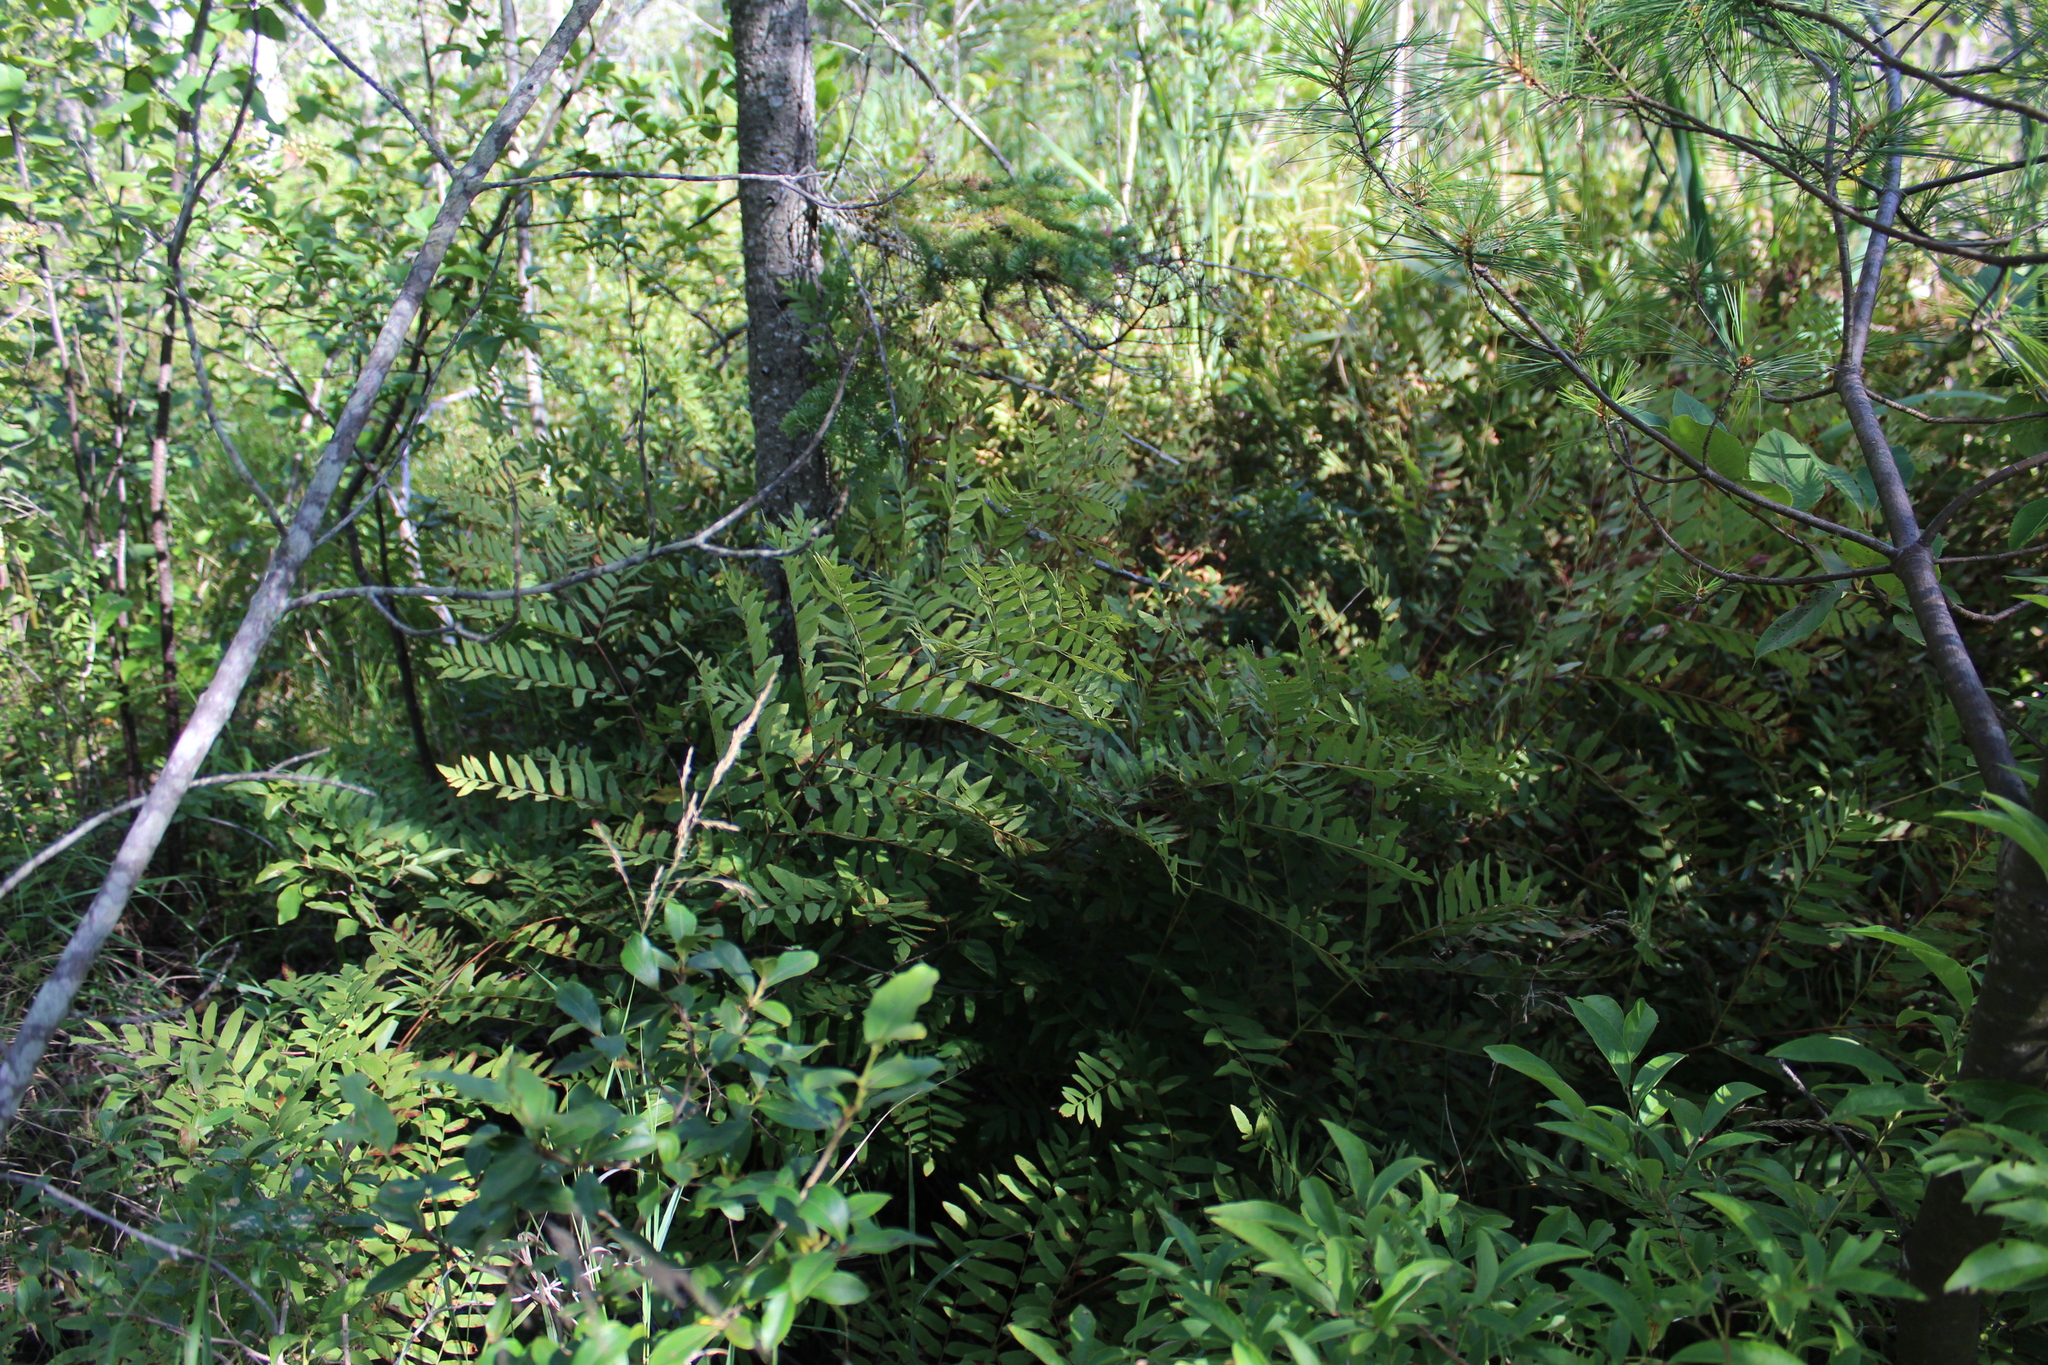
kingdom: Plantae
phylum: Tracheophyta
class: Polypodiopsida
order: Osmundales
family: Osmundaceae
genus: Osmunda
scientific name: Osmunda spectabilis
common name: American royal fern
